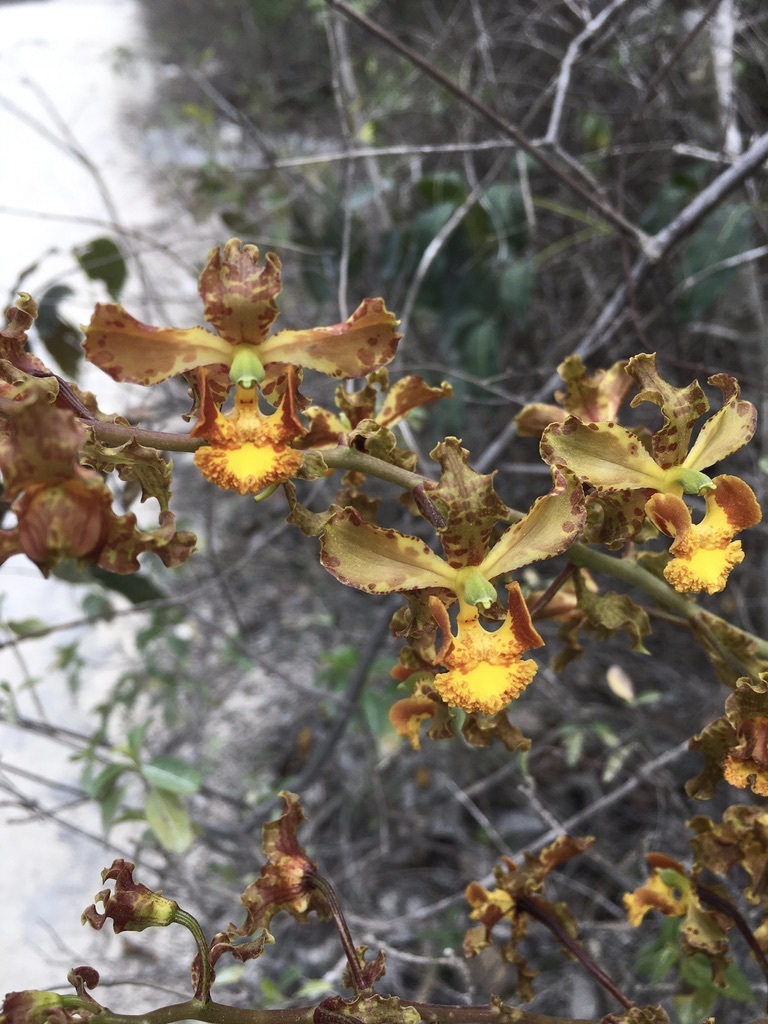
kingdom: Plantae
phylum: Tracheophyta
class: Liliopsida
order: Asparagales
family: Orchidaceae
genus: Cyrtopodium
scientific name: Cyrtopodium macrobulbon
